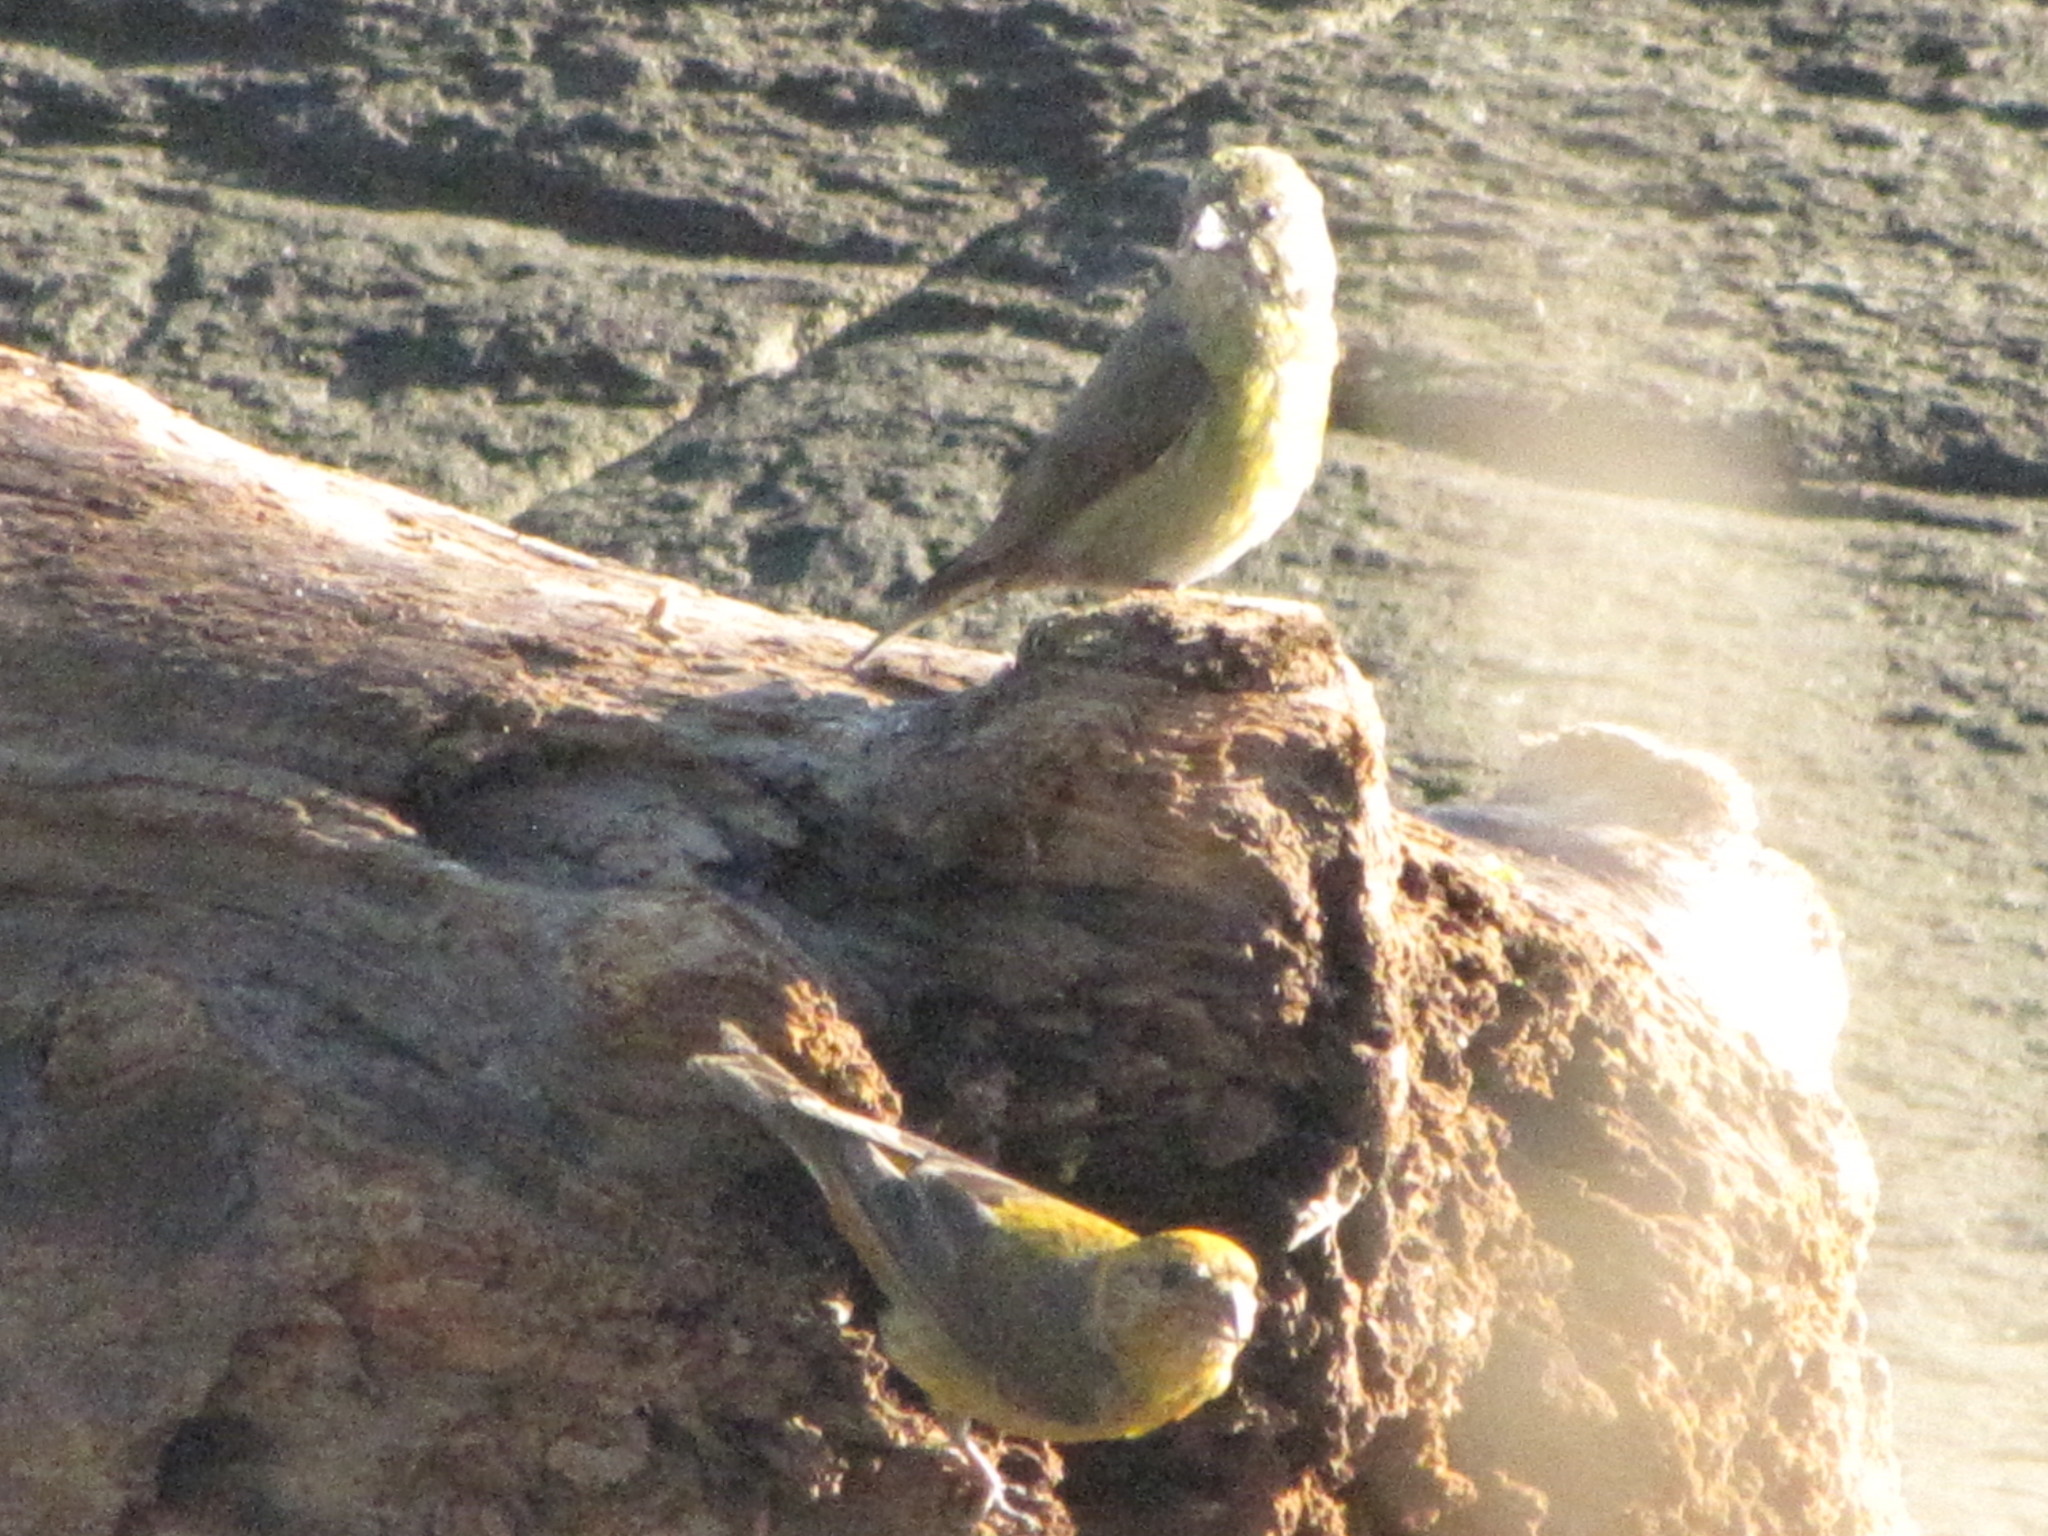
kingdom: Animalia
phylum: Chordata
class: Aves
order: Passeriformes
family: Fringillidae
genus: Loxia
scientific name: Loxia curvirostra
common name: Red crossbill
